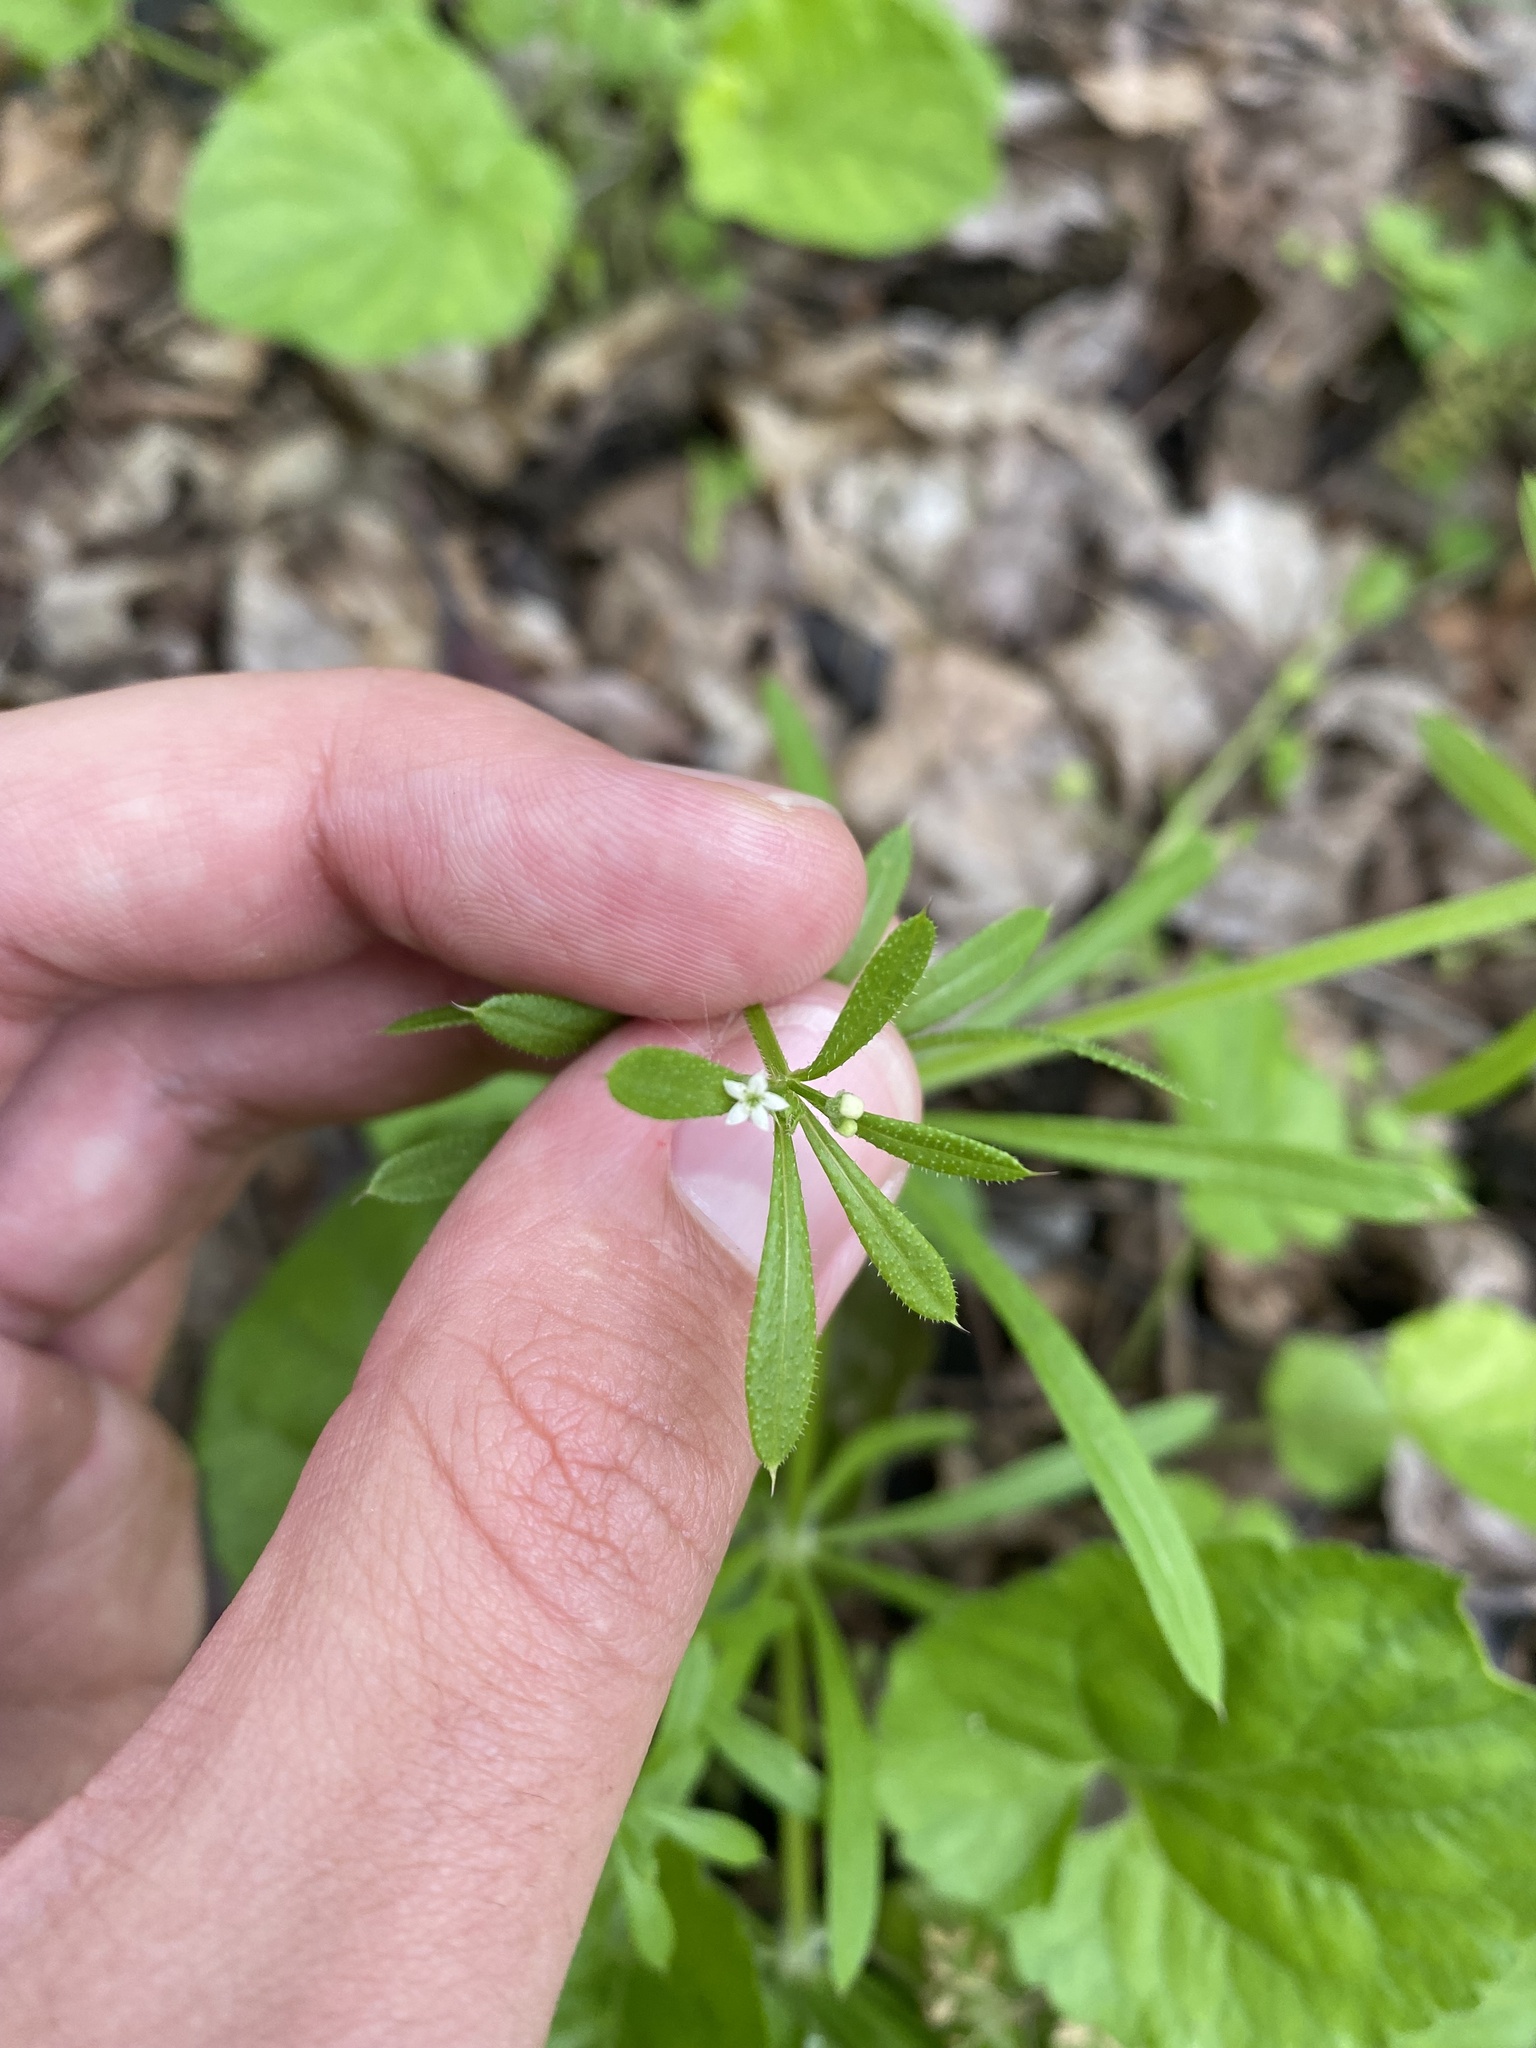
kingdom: Plantae
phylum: Tracheophyta
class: Magnoliopsida
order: Gentianales
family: Rubiaceae
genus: Galium
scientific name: Galium aparine
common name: Cleavers
